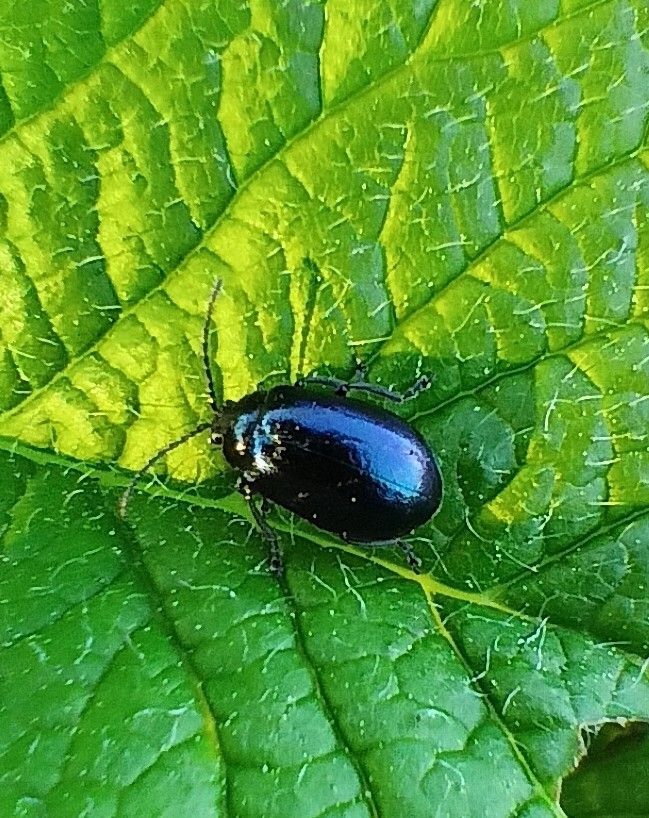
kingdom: Animalia
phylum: Arthropoda
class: Insecta
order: Coleoptera
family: Chrysomelidae
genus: Agelastica
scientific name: Agelastica alni
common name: Alder leaf beetle
